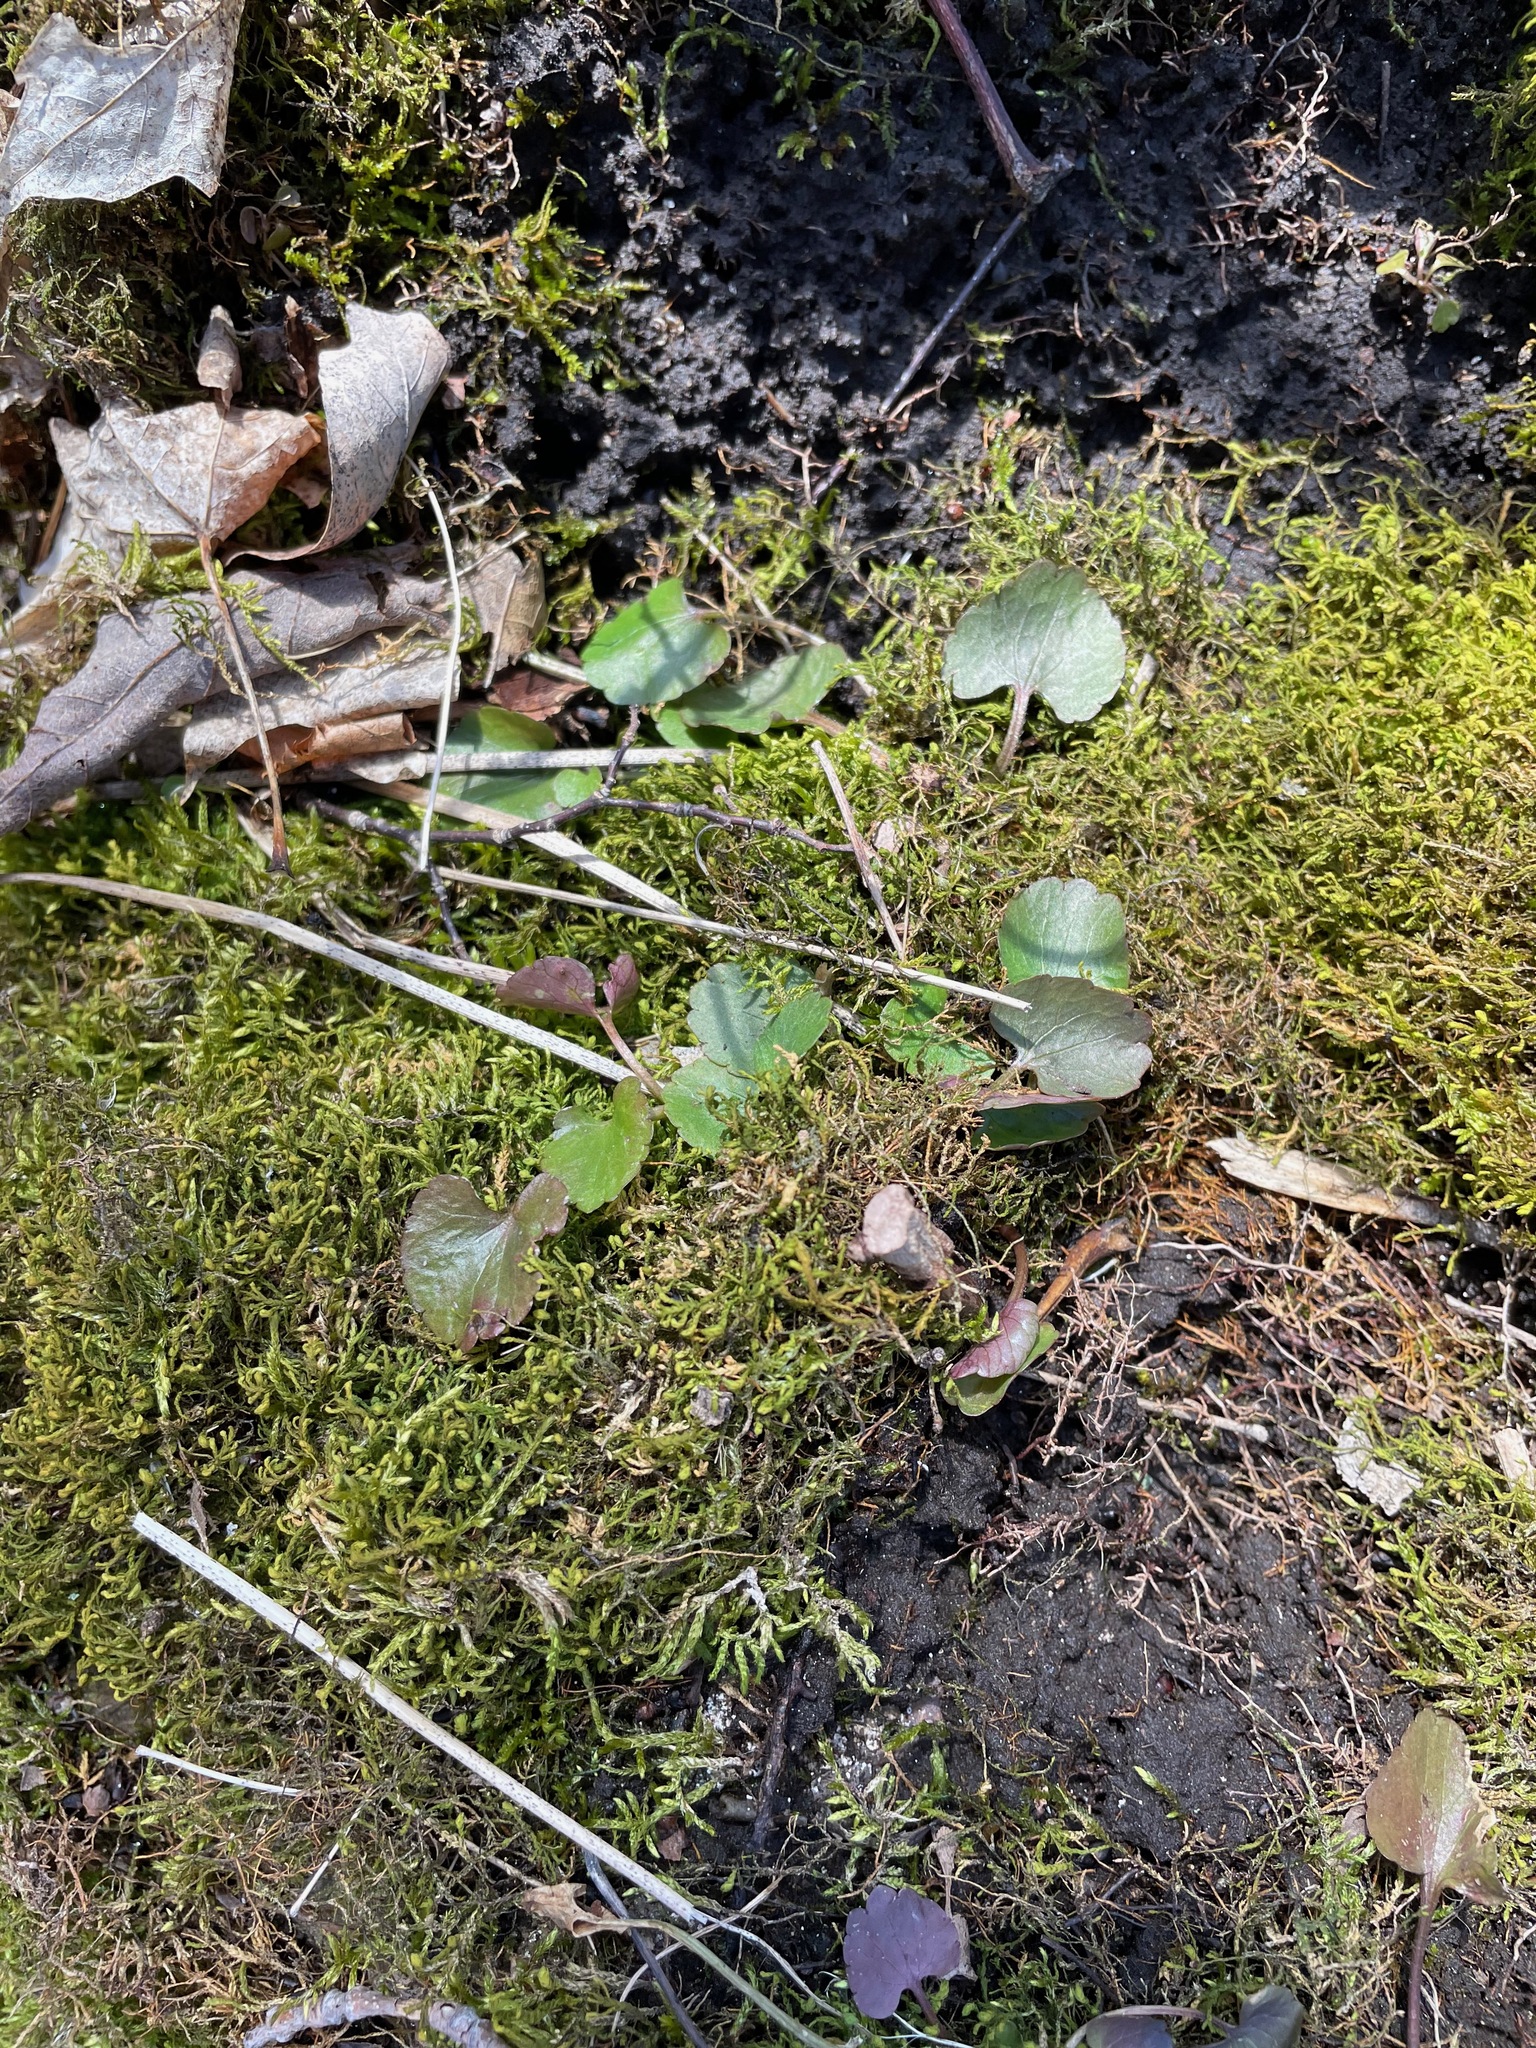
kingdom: Plantae
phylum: Tracheophyta
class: Magnoliopsida
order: Ranunculales
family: Ranunculaceae
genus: Ranunculus
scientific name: Ranunculus abortivus
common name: Early wood buttercup
